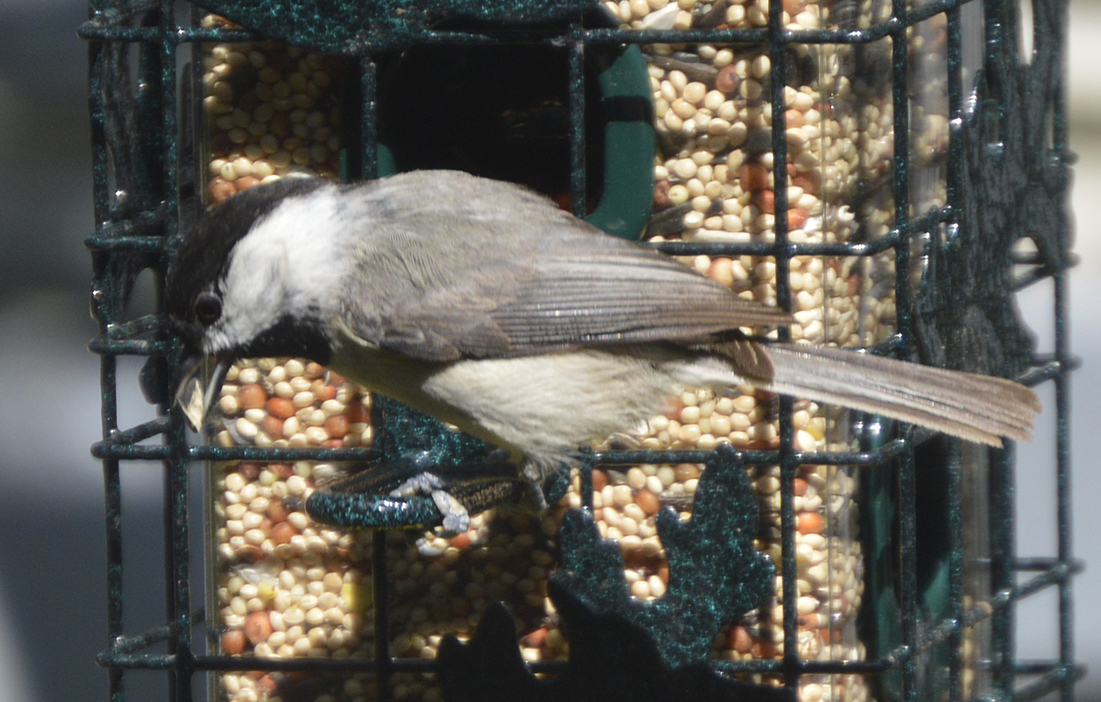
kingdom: Animalia
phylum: Chordata
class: Aves
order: Passeriformes
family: Paridae
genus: Poecile
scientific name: Poecile carolinensis
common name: Carolina chickadee
